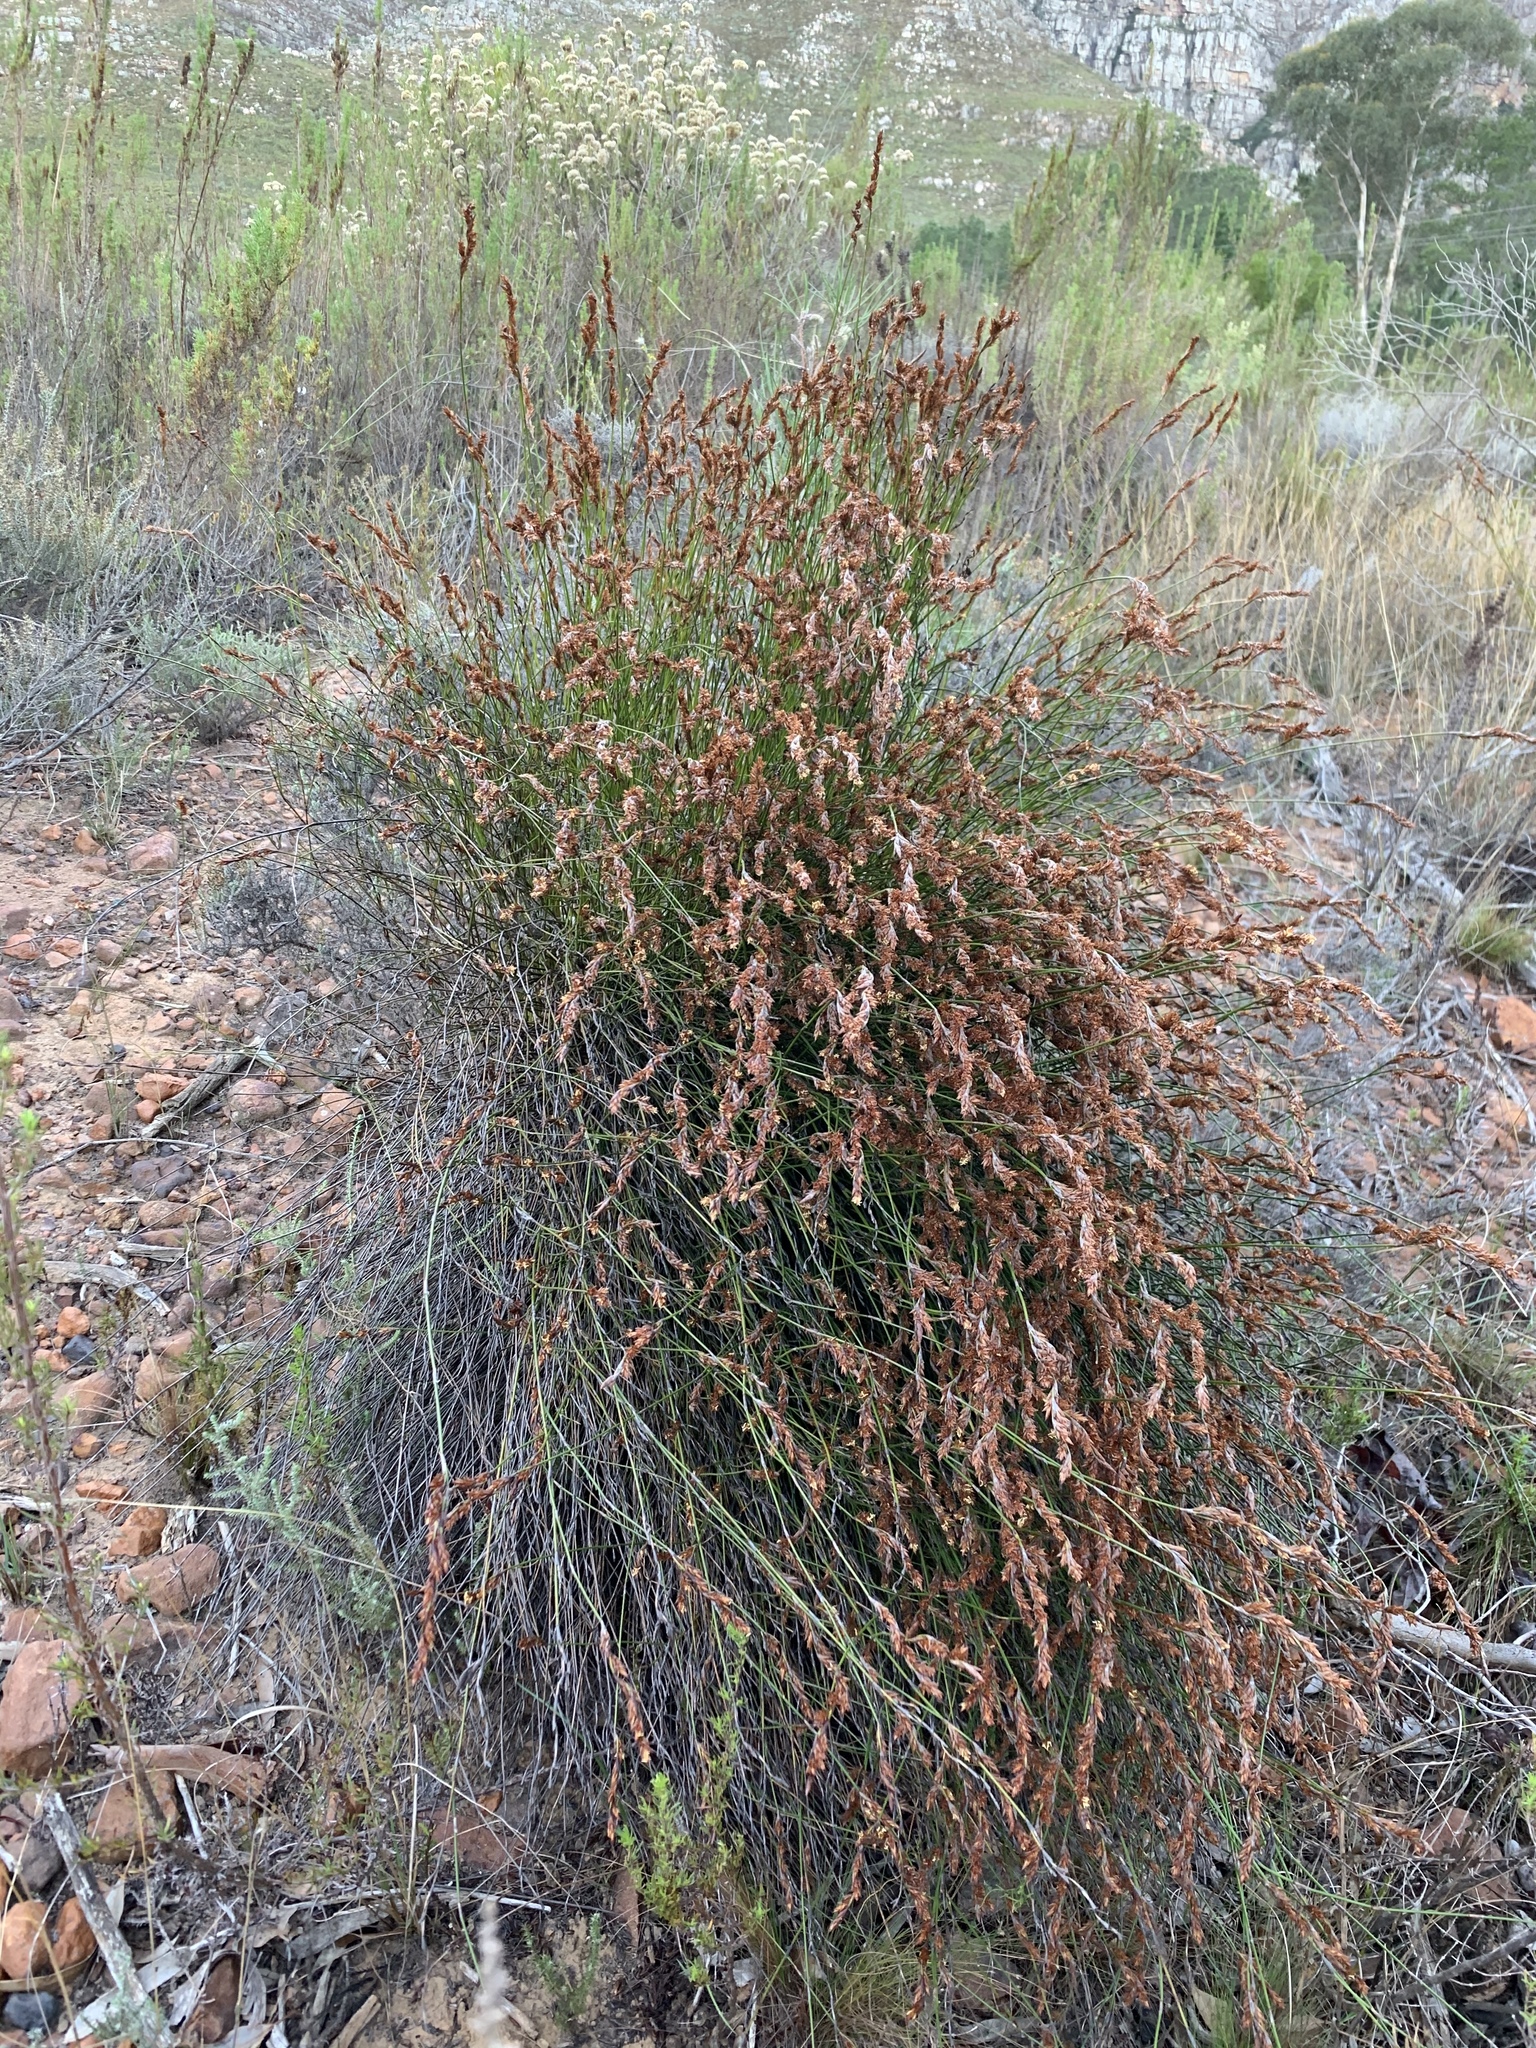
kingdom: Plantae
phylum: Tracheophyta
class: Liliopsida
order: Poales
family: Restionaceae
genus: Restio
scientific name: Restio triticeus
